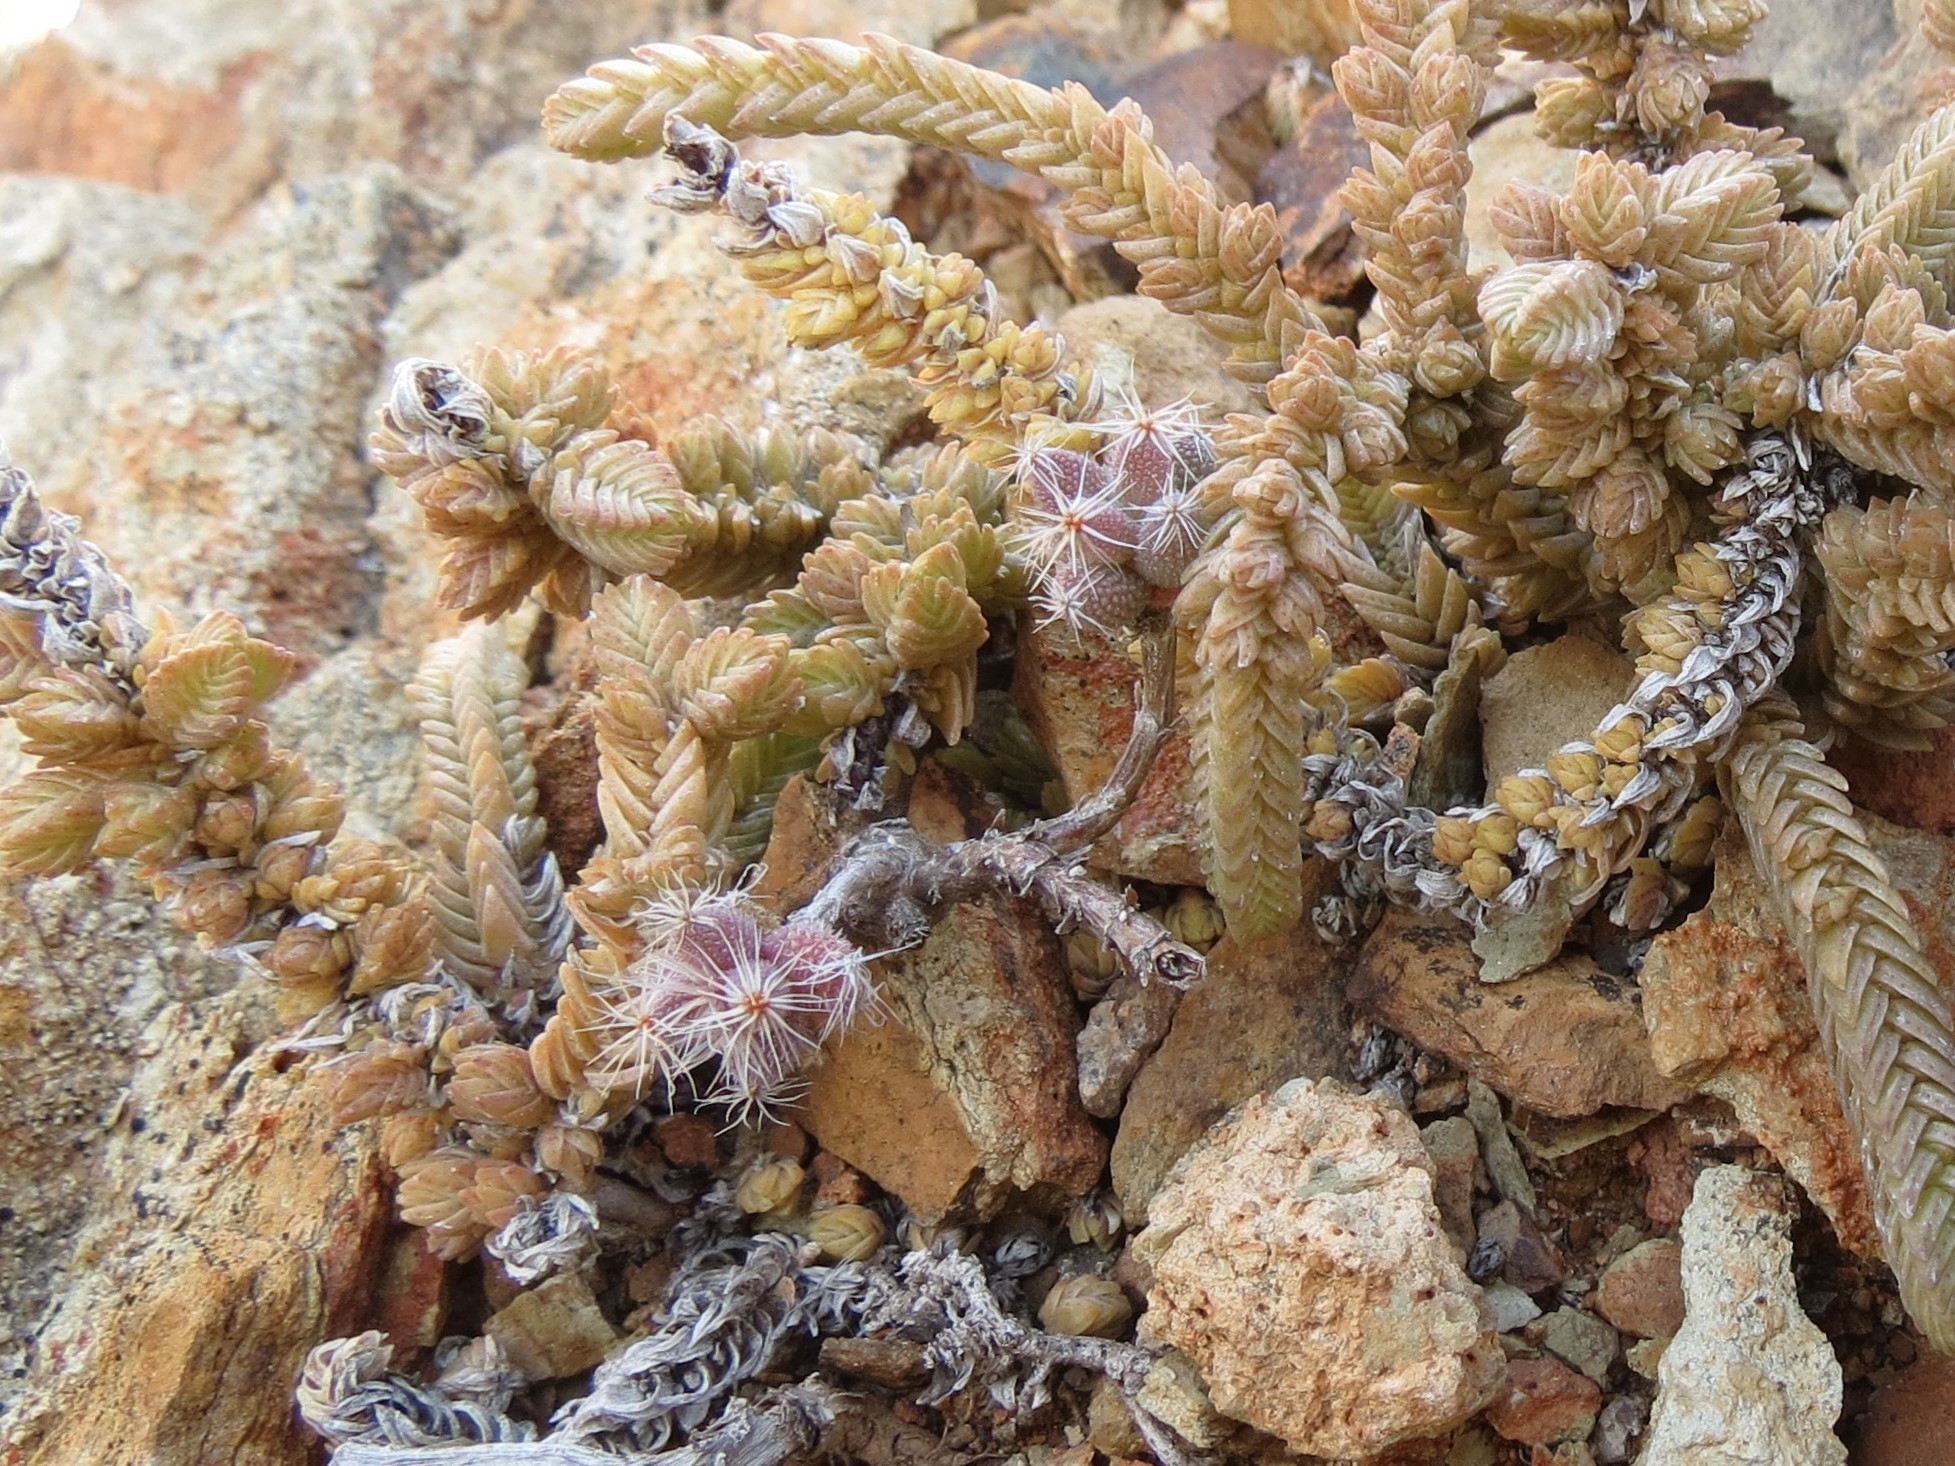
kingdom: Plantae
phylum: Tracheophyta
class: Magnoliopsida
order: Caryophyllales
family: Aizoaceae
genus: Trichodiadema
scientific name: Trichodiadema pomeridianum
